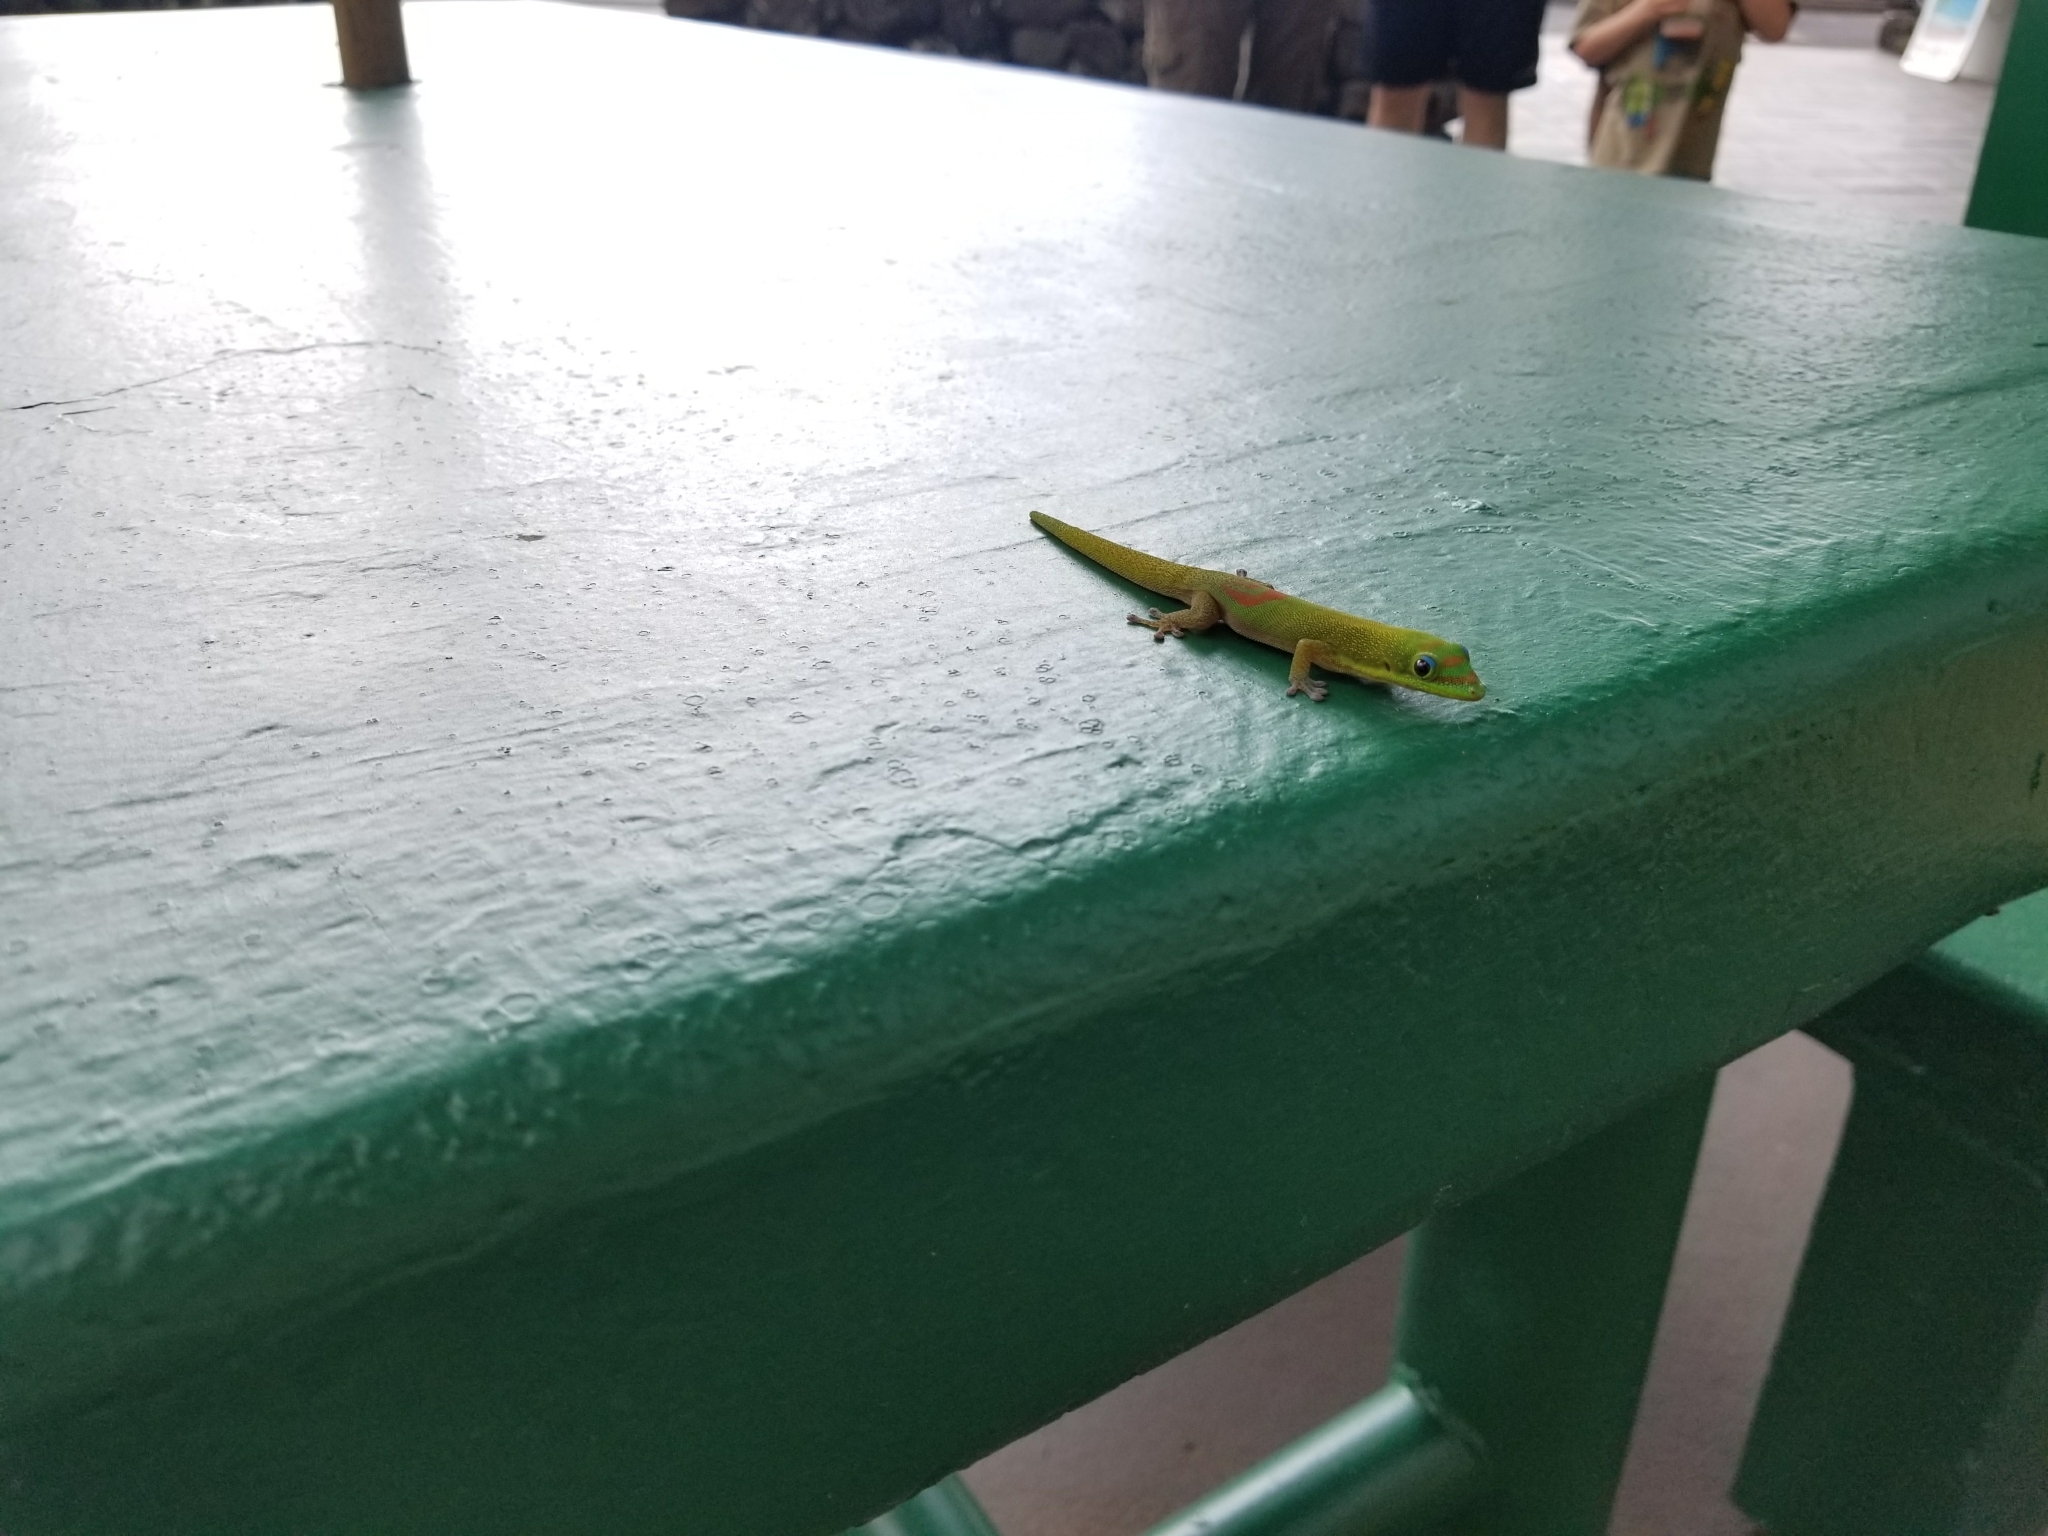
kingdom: Animalia
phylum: Chordata
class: Squamata
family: Gekkonidae
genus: Phelsuma
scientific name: Phelsuma laticauda
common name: Gold dust day gecko
